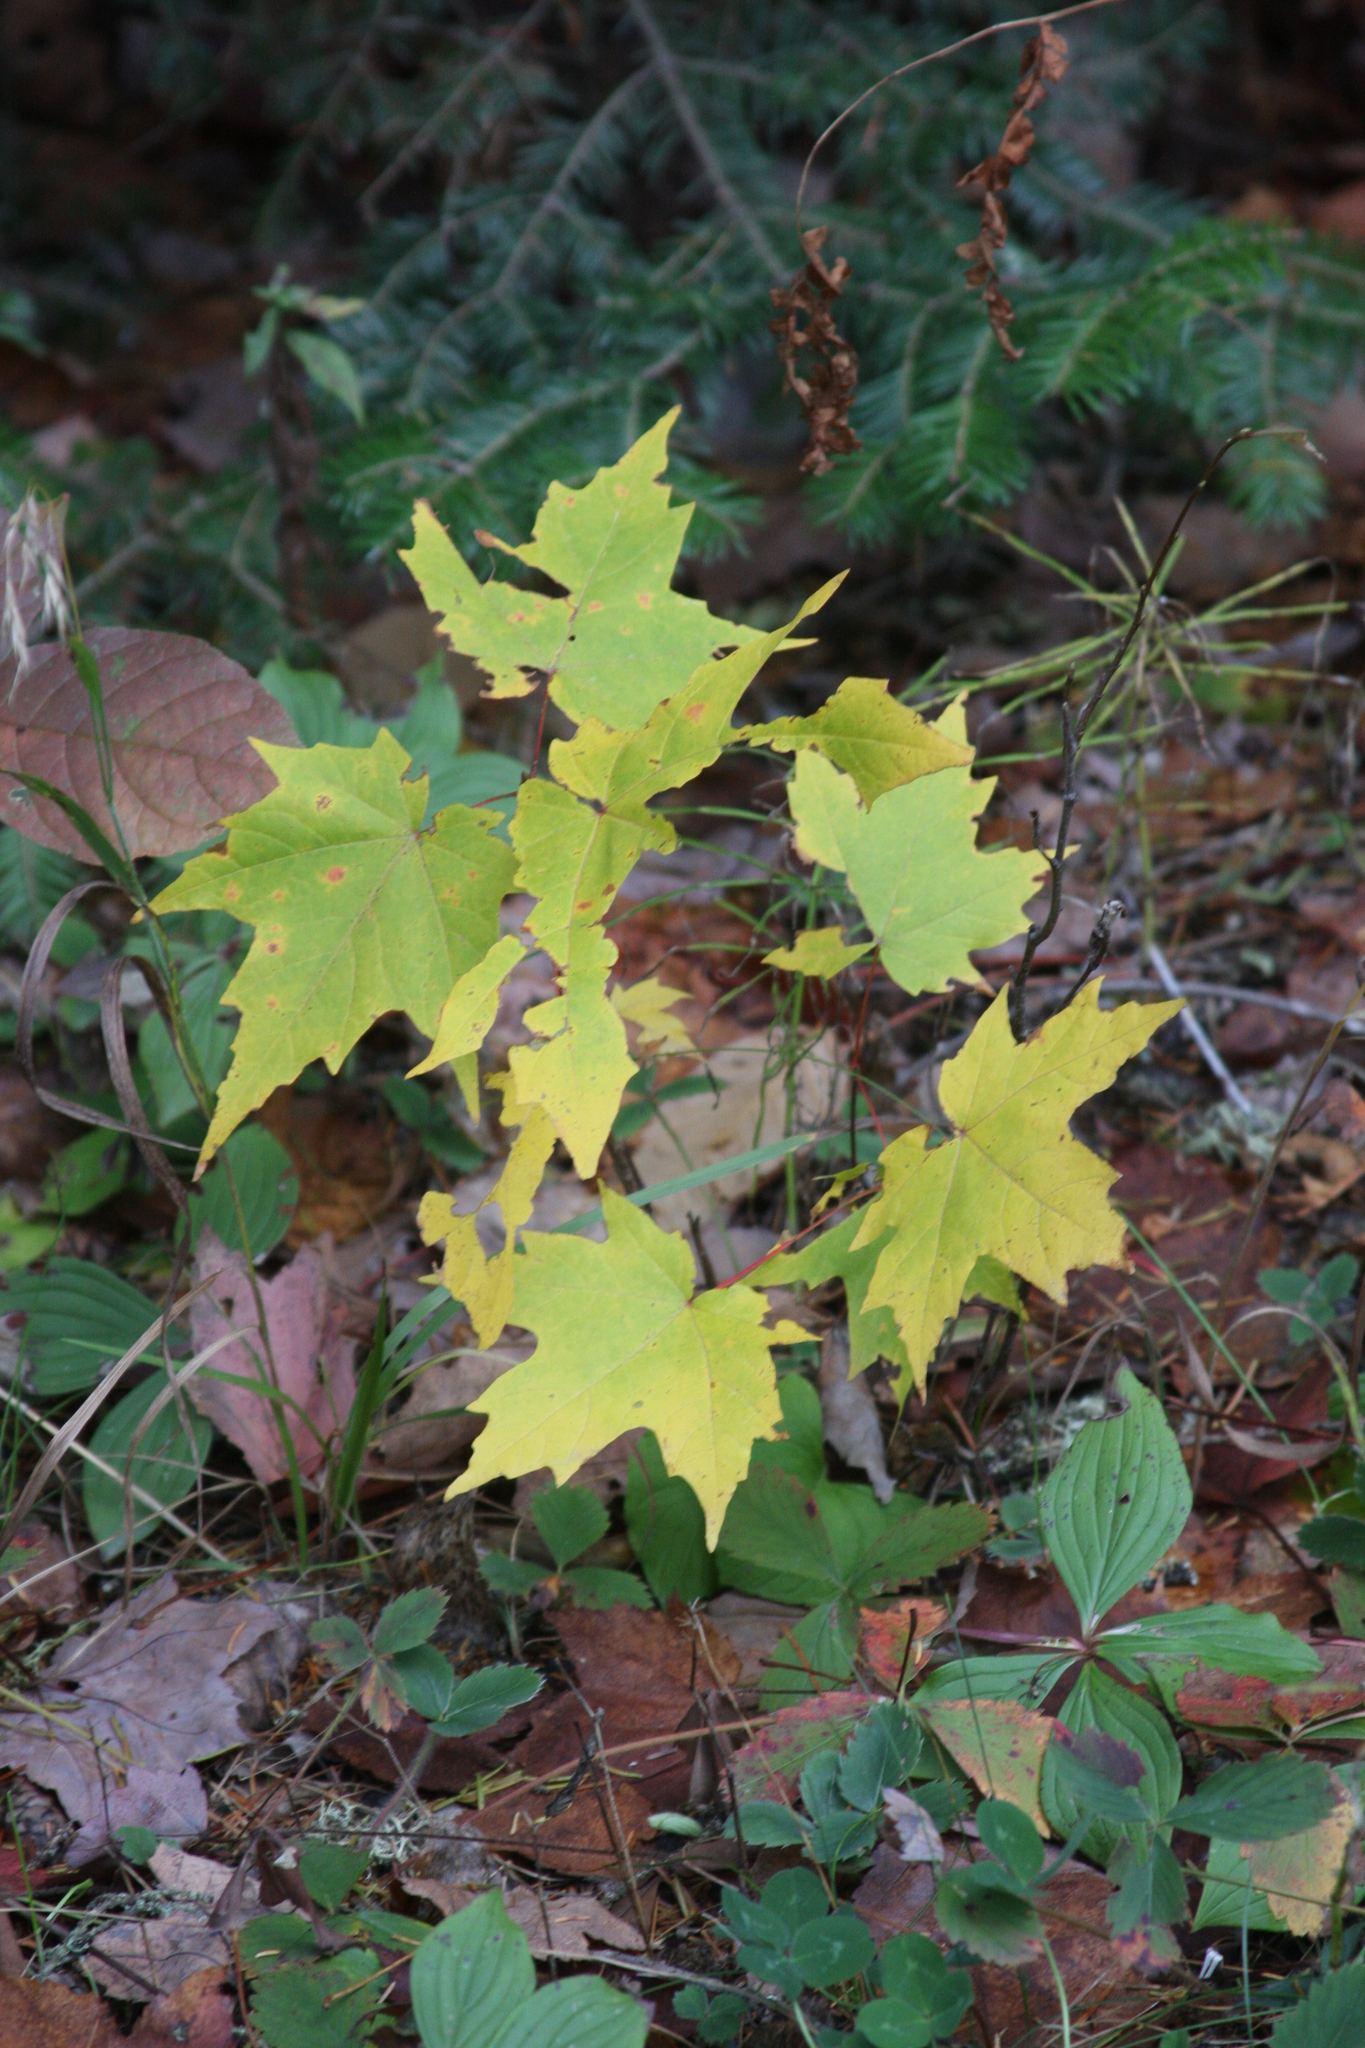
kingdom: Plantae
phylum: Tracheophyta
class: Magnoliopsida
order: Sapindales
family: Sapindaceae
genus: Acer
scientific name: Acer saccharum
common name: Sugar maple
